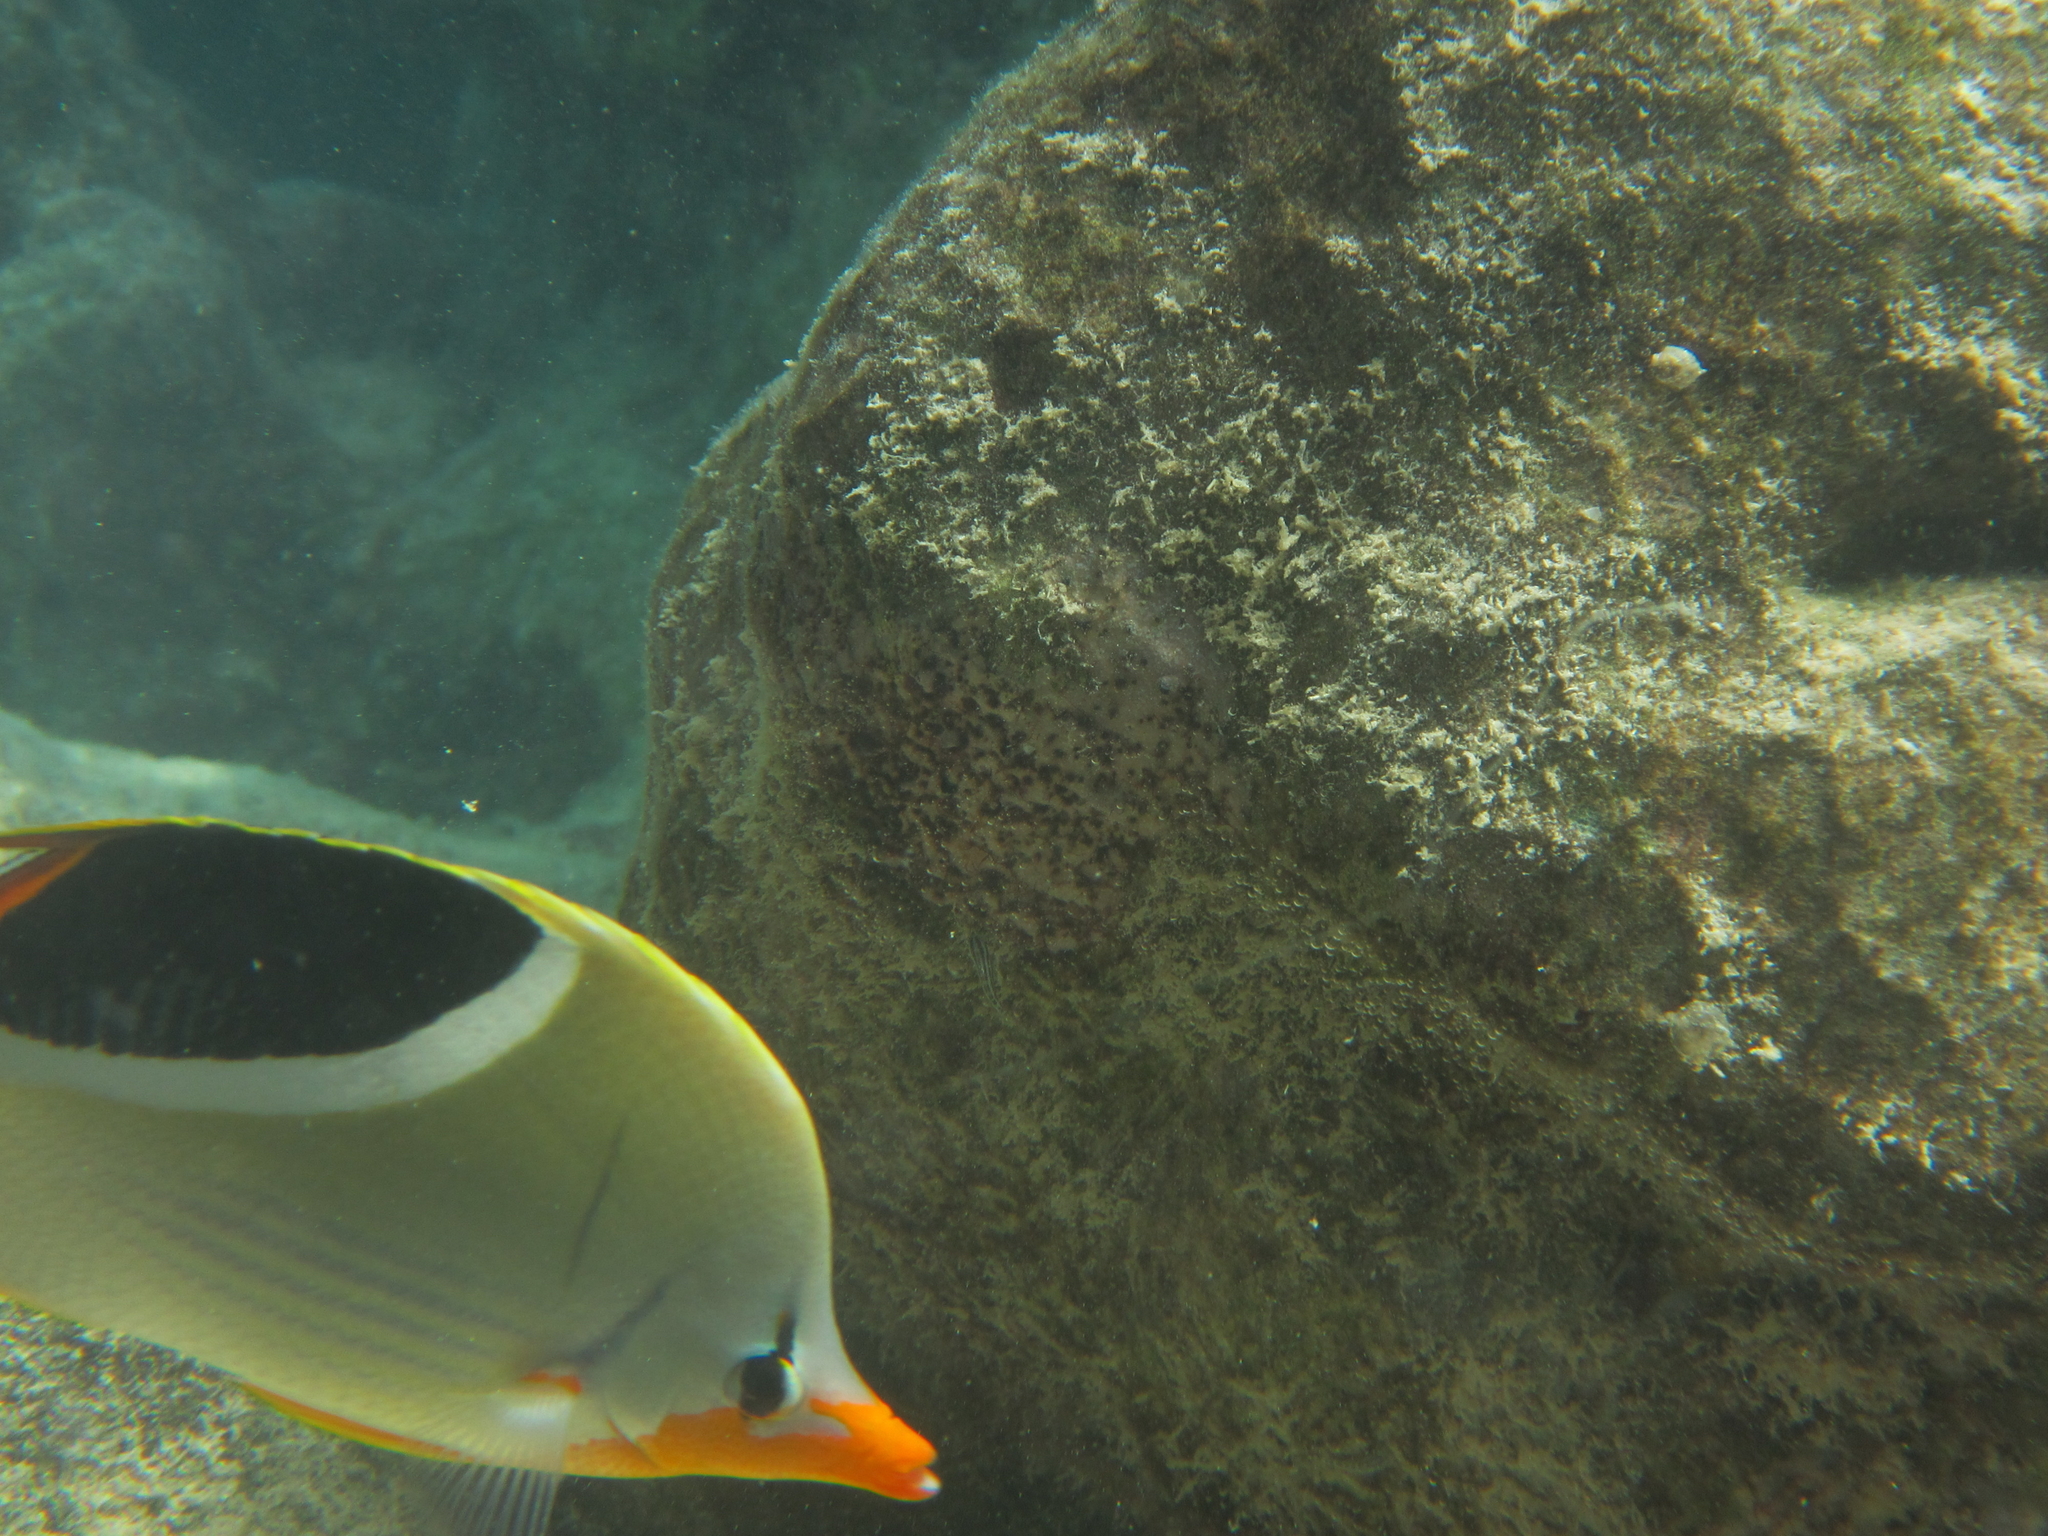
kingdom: Animalia
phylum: Chordata
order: Perciformes
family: Chaetodontidae
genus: Chaetodon
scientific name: Chaetodon ephippium
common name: Saddled butterflyfish
